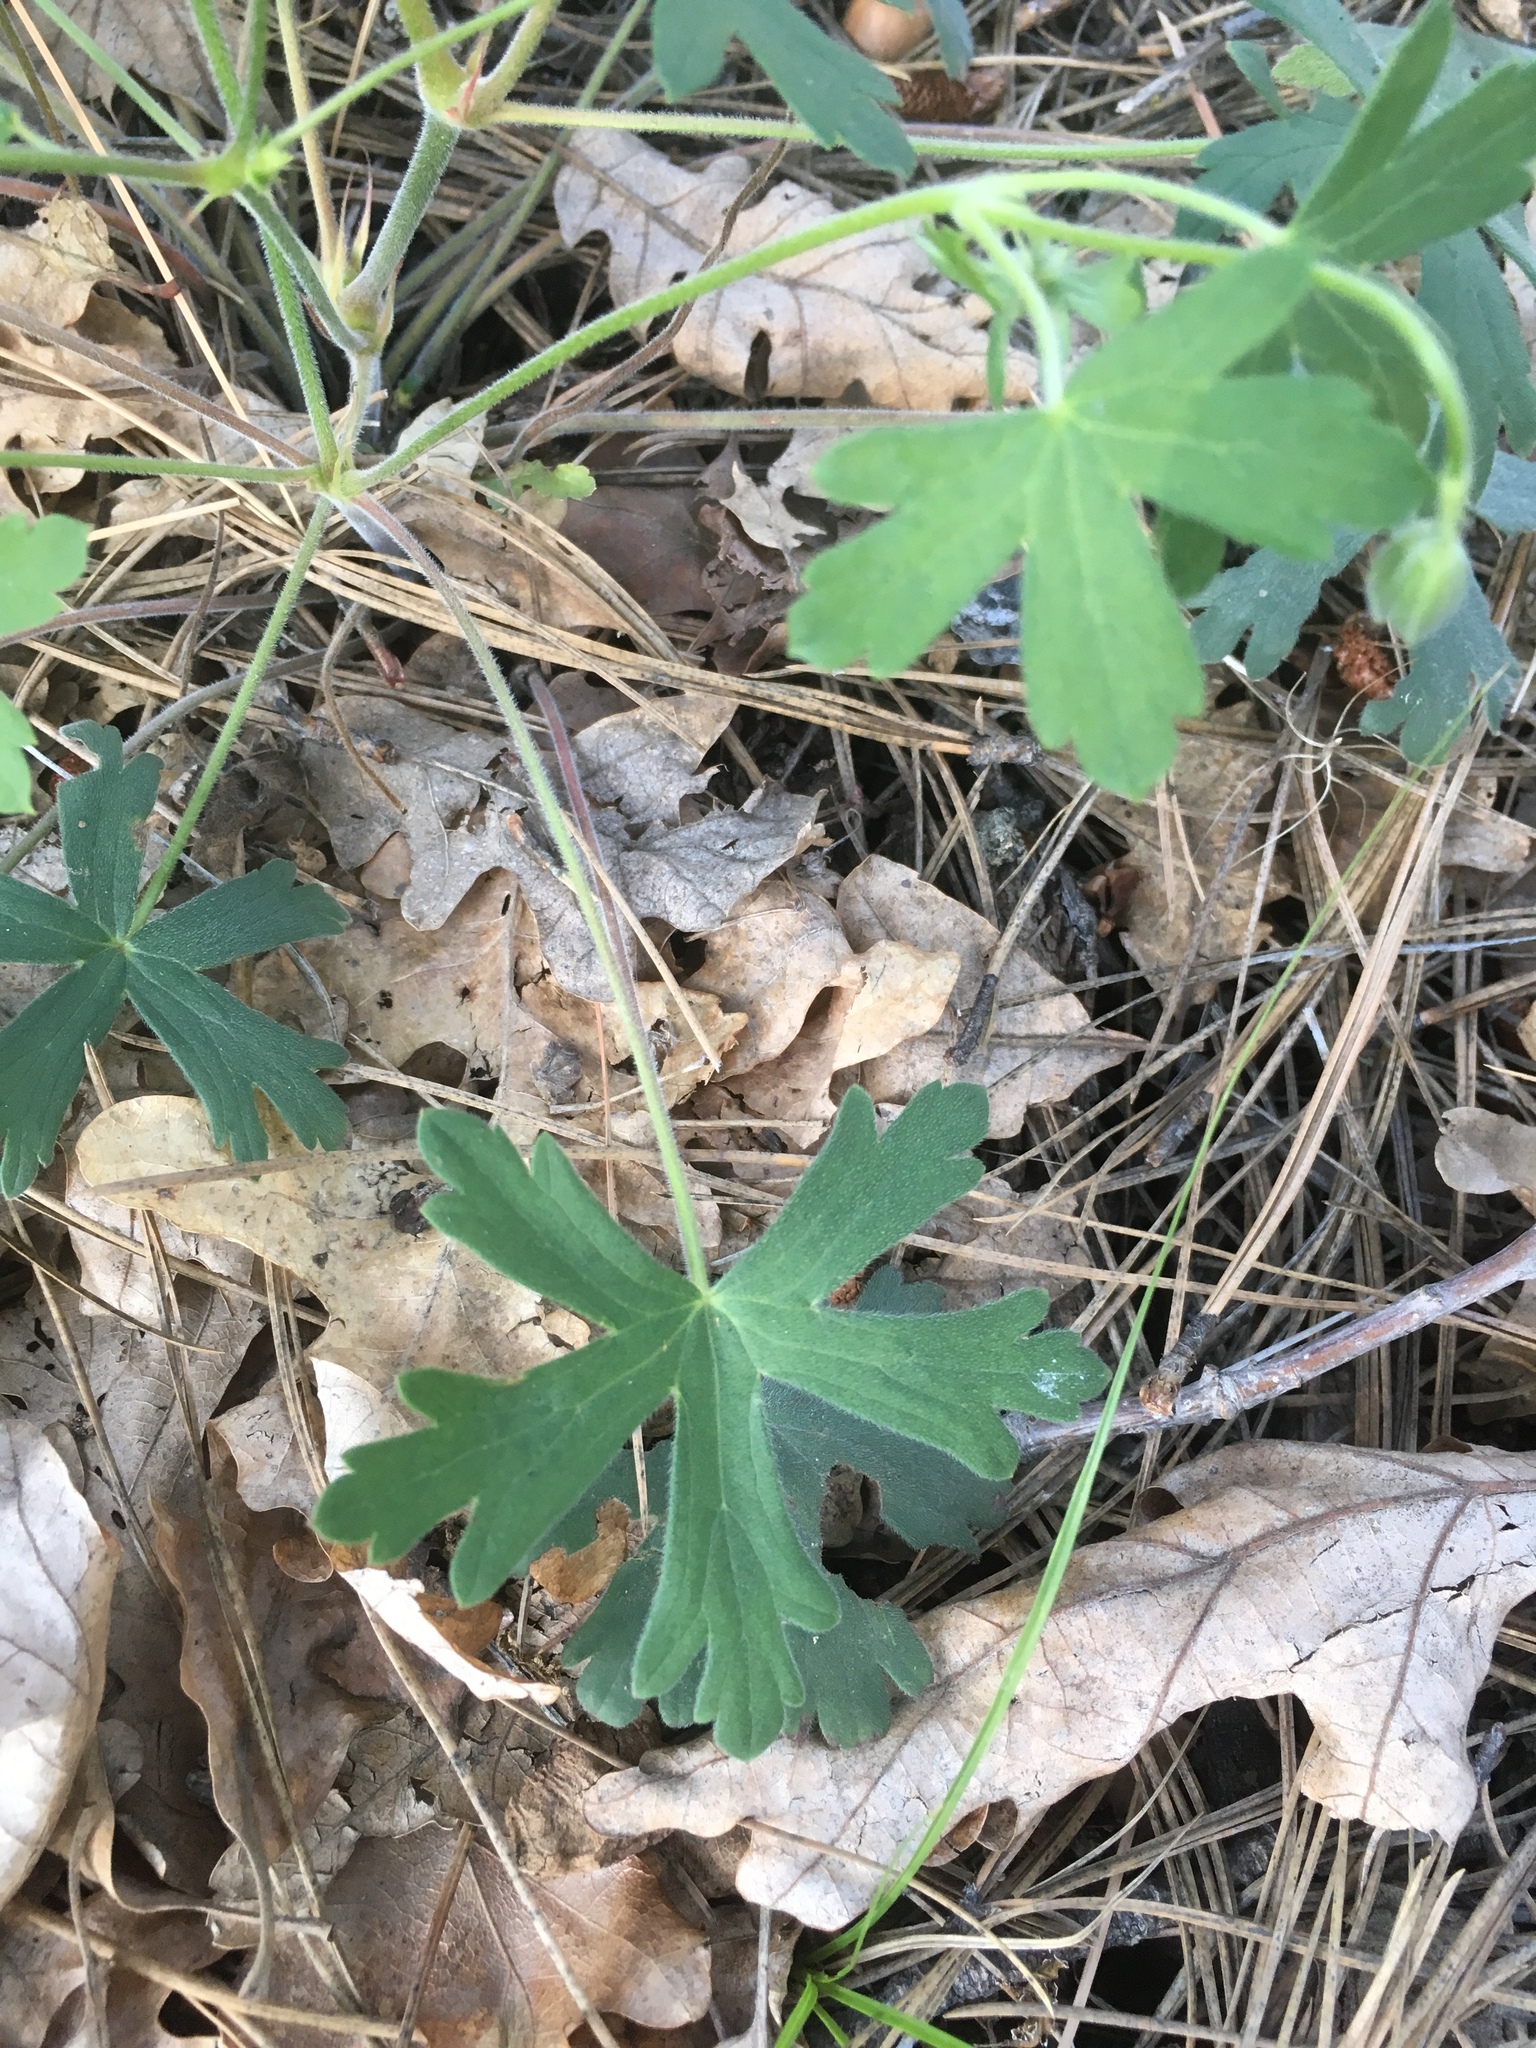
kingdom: Plantae
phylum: Tracheophyta
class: Magnoliopsida
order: Geraniales
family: Geraniaceae
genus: Geranium
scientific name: Geranium caespitosum
